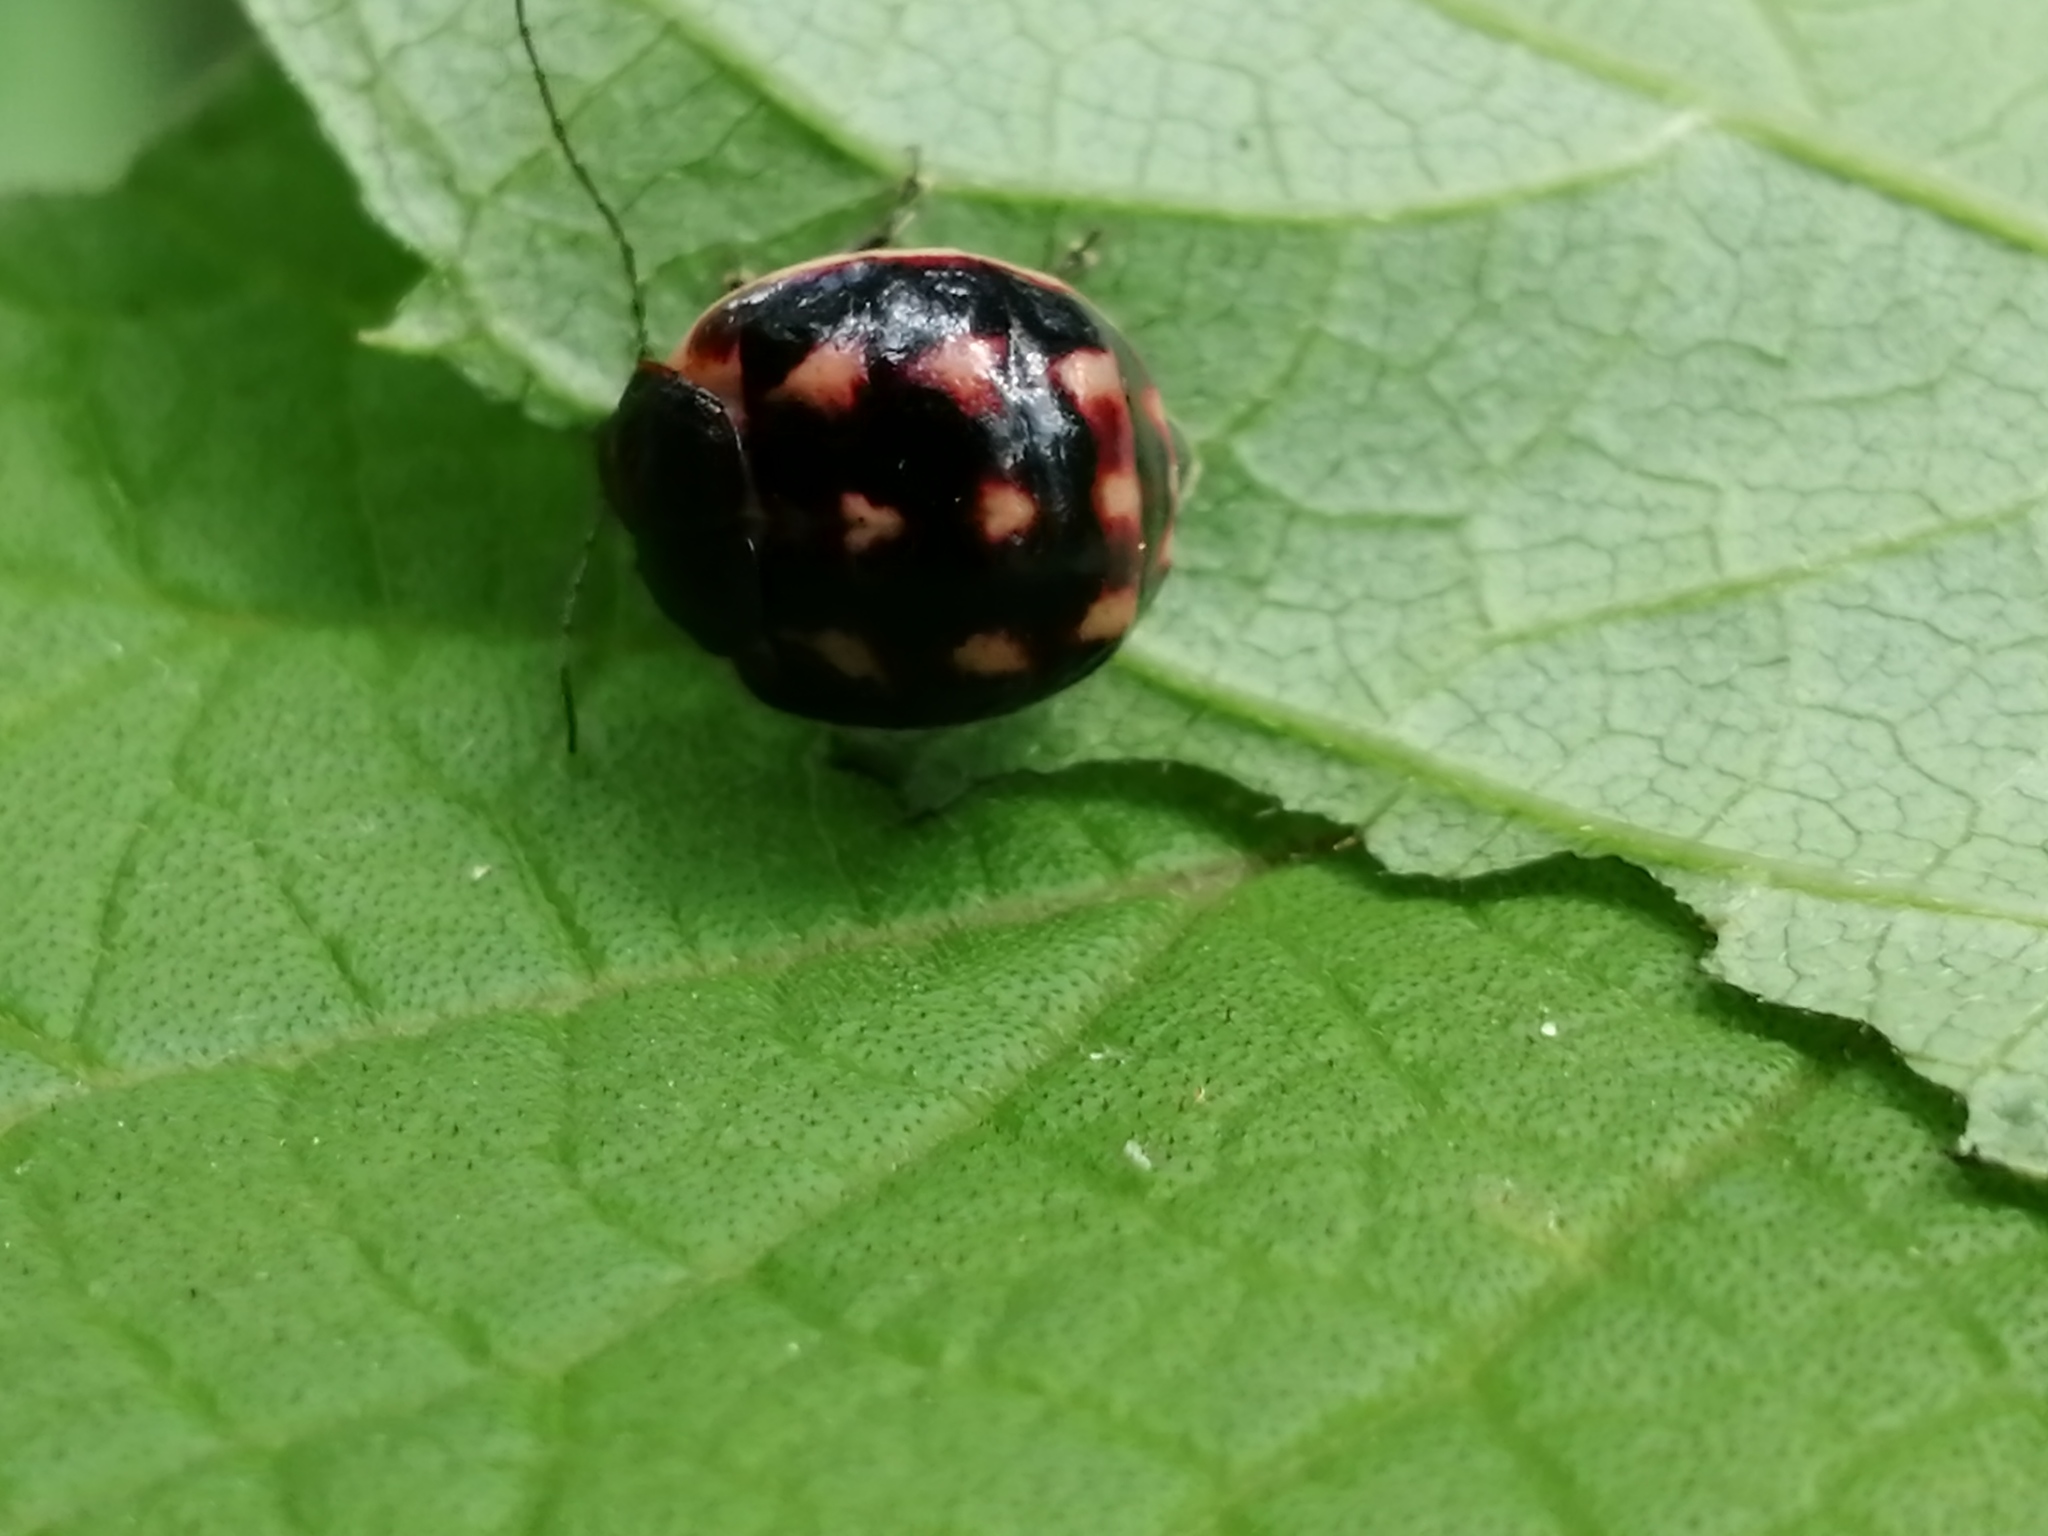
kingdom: Animalia
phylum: Arthropoda
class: Insecta
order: Coleoptera
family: Chrysomelidae
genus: Metacycla
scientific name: Metacycla
